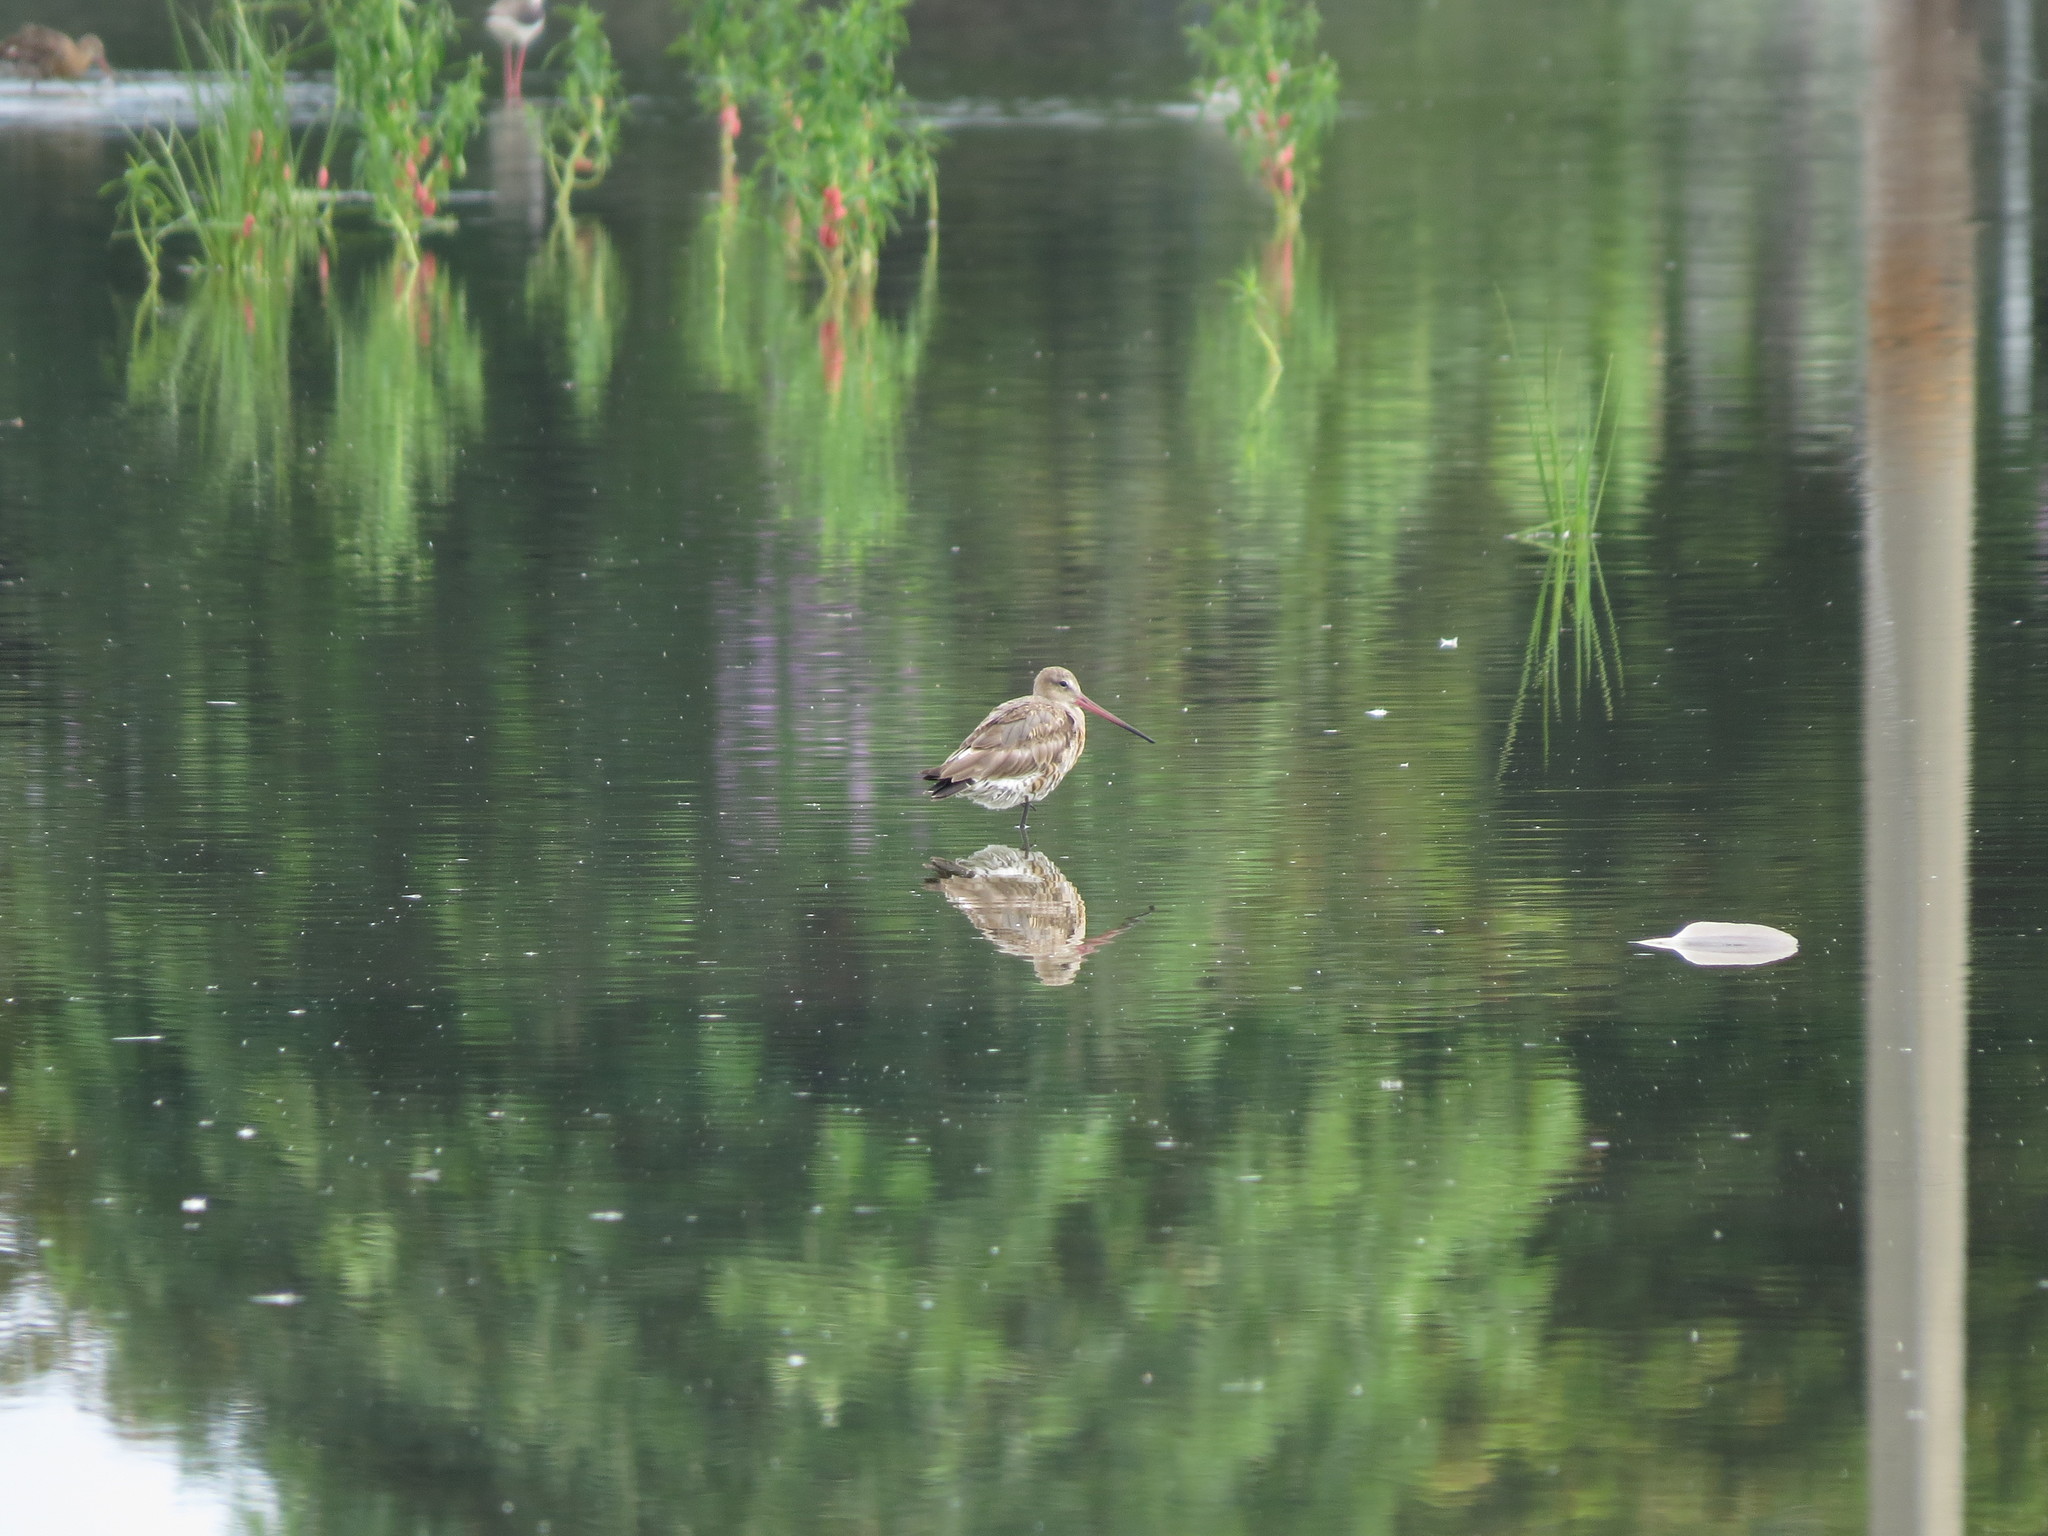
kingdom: Animalia
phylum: Chordata
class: Aves
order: Charadriiformes
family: Scolopacidae
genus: Limosa
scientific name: Limosa limosa
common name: Black-tailed godwit
